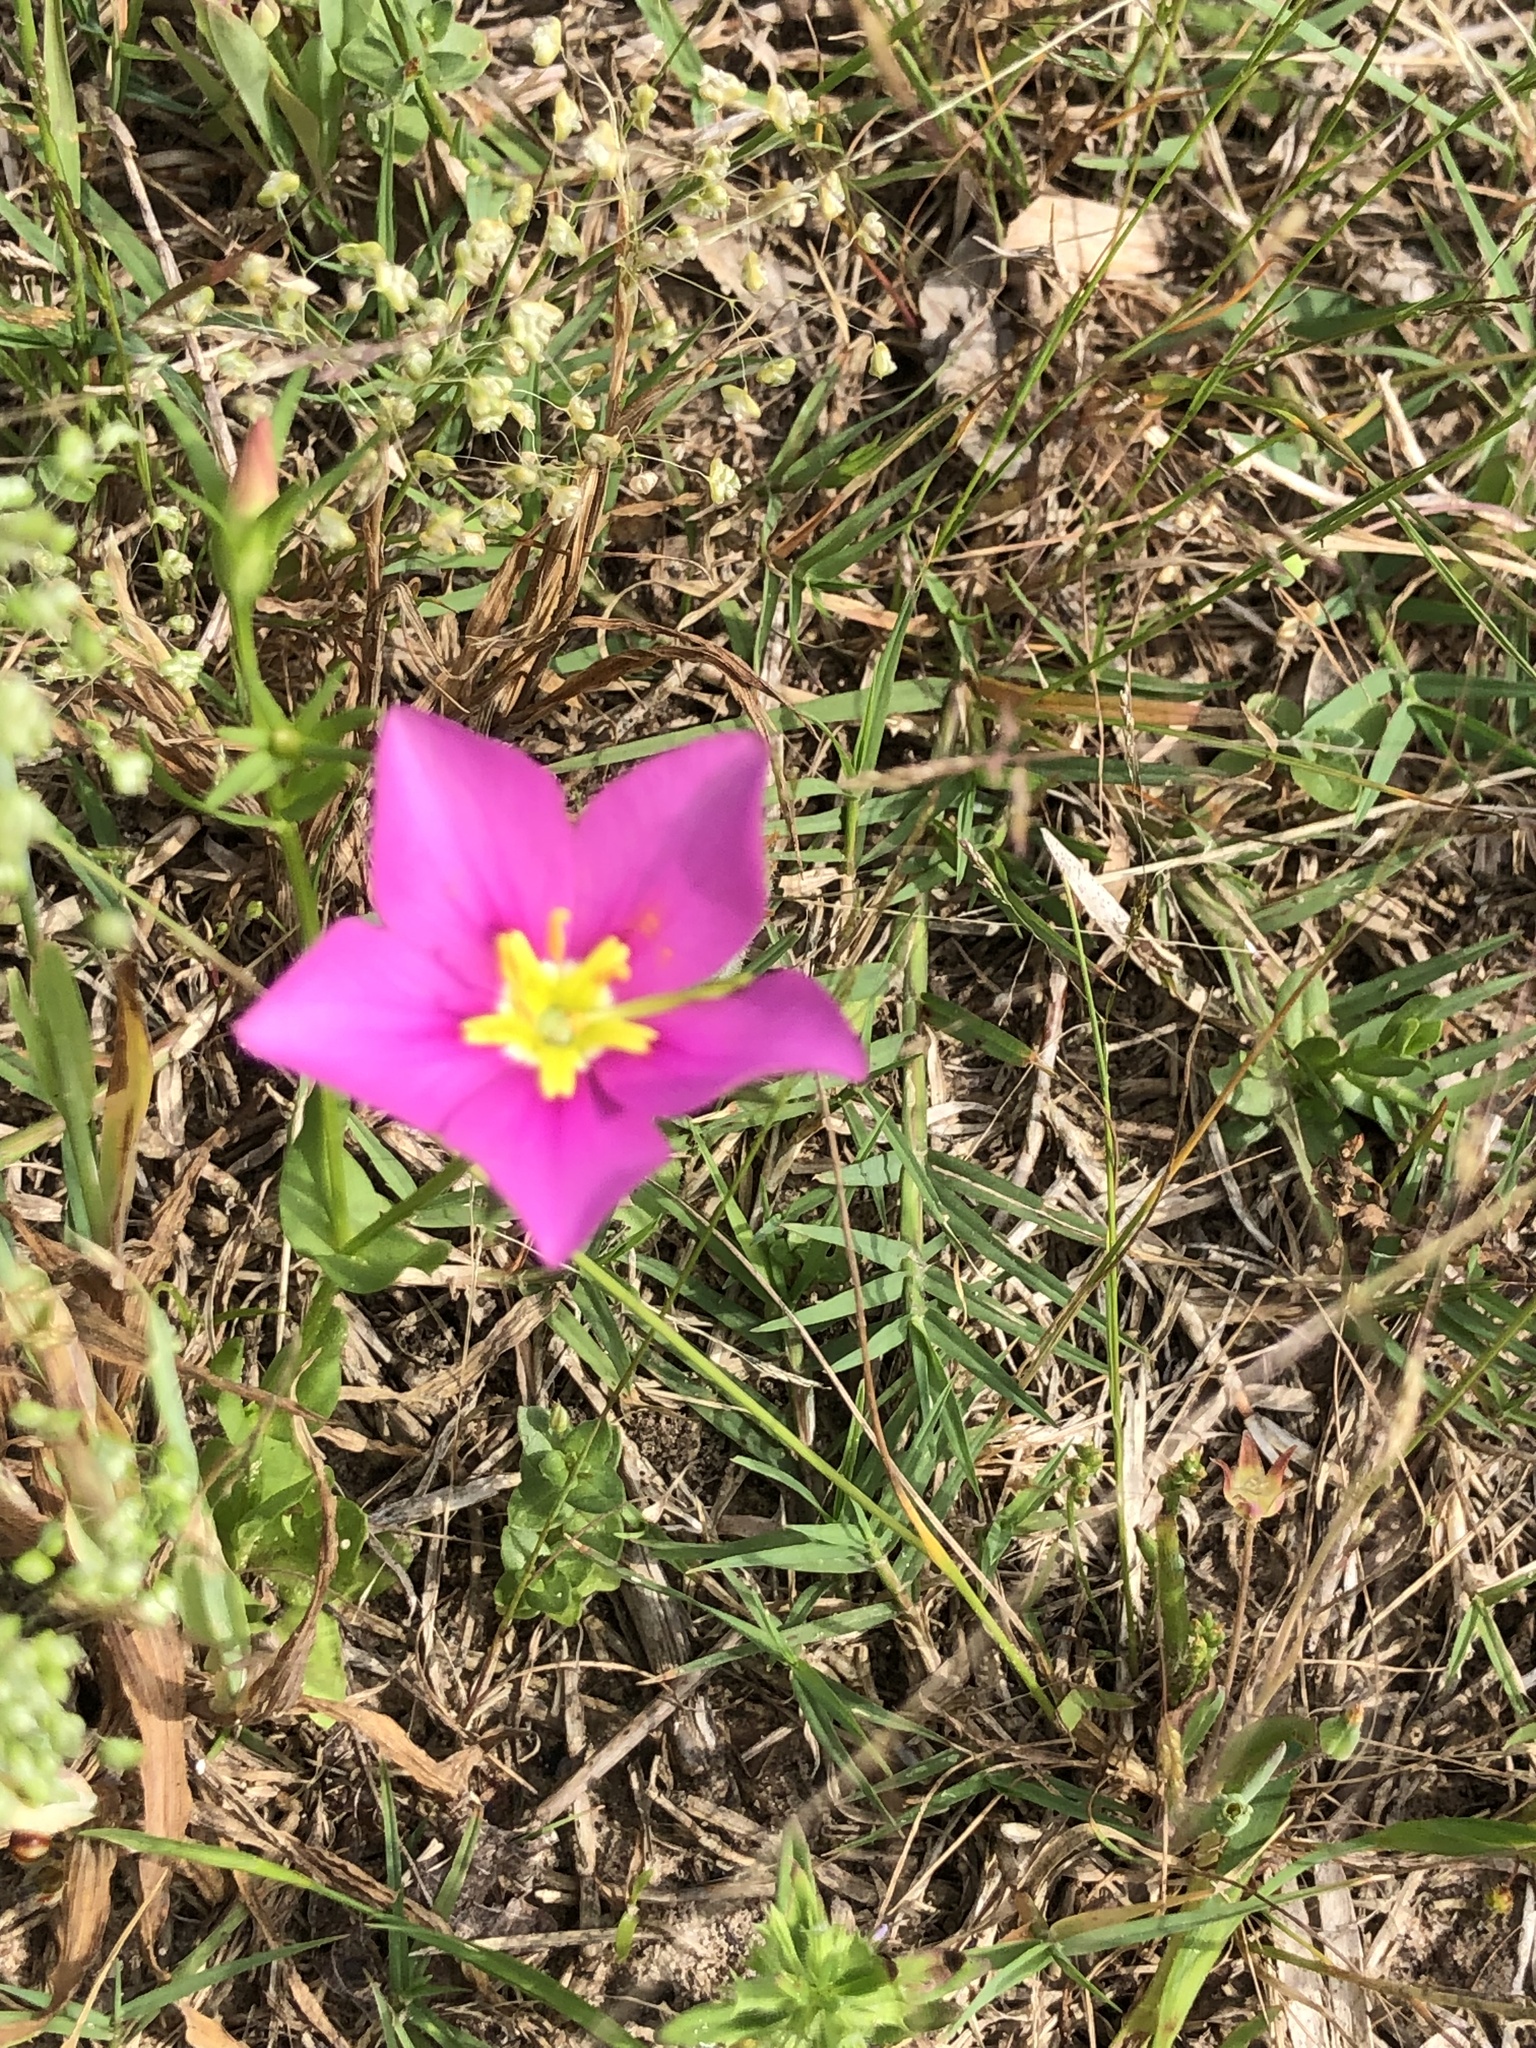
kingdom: Plantae
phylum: Tracheophyta
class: Magnoliopsida
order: Gentianales
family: Gentianaceae
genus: Sabatia
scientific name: Sabatia campestris
